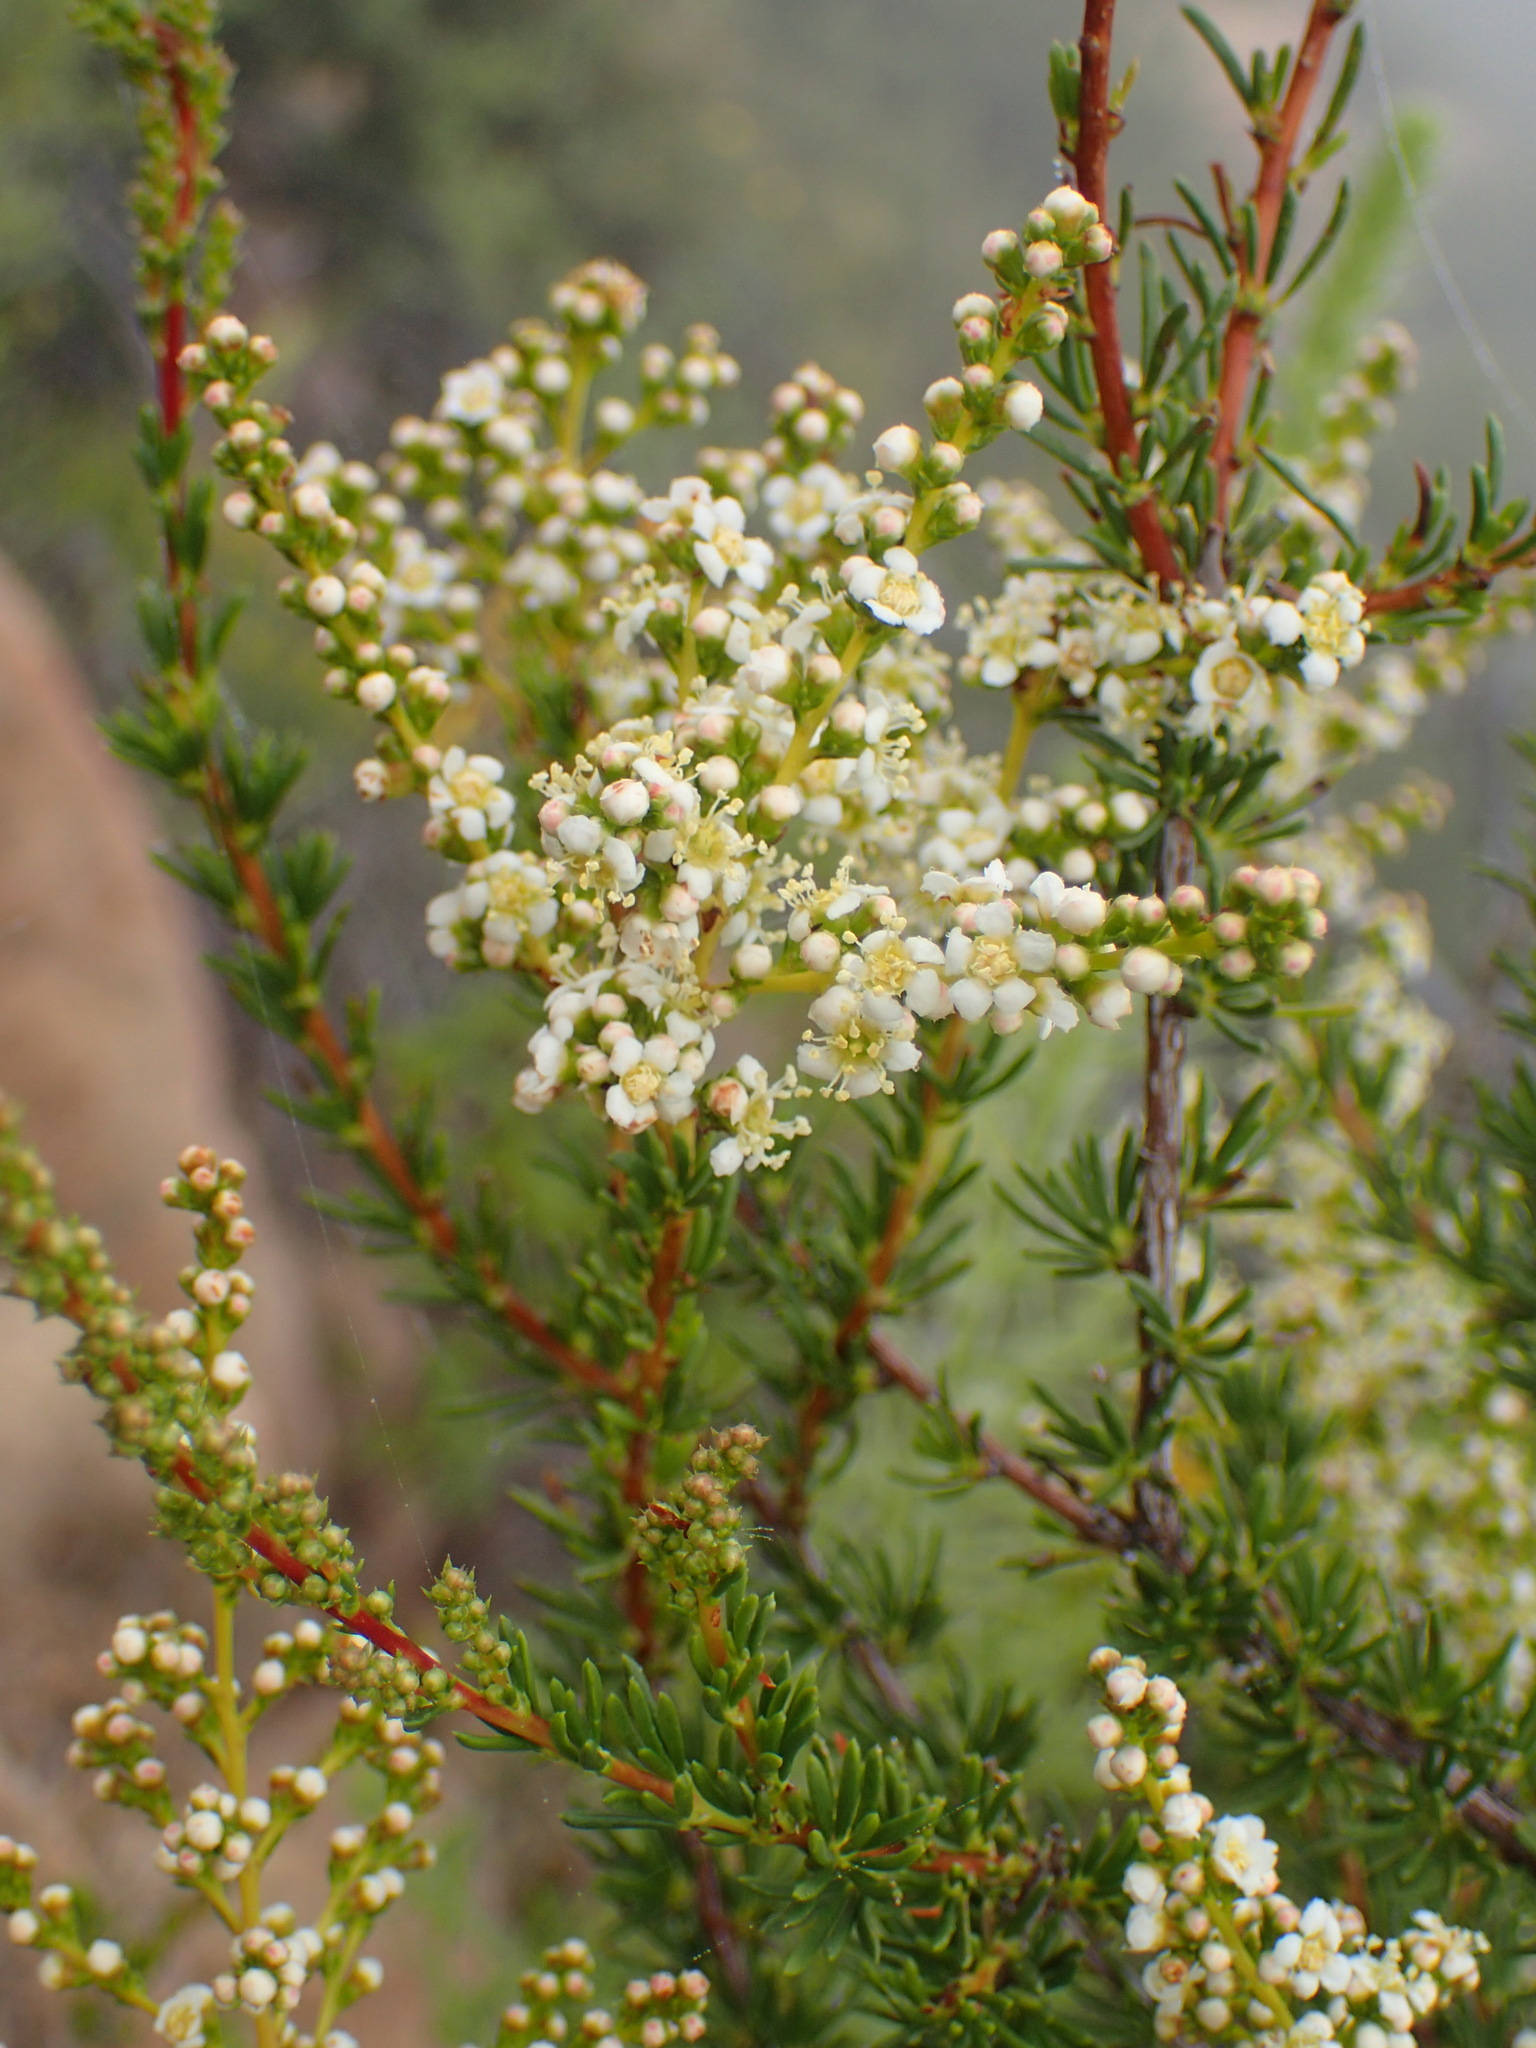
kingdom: Plantae
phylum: Tracheophyta
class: Magnoliopsida
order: Rosales
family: Rosaceae
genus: Adenostoma
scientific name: Adenostoma fasciculatum
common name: Chamise
